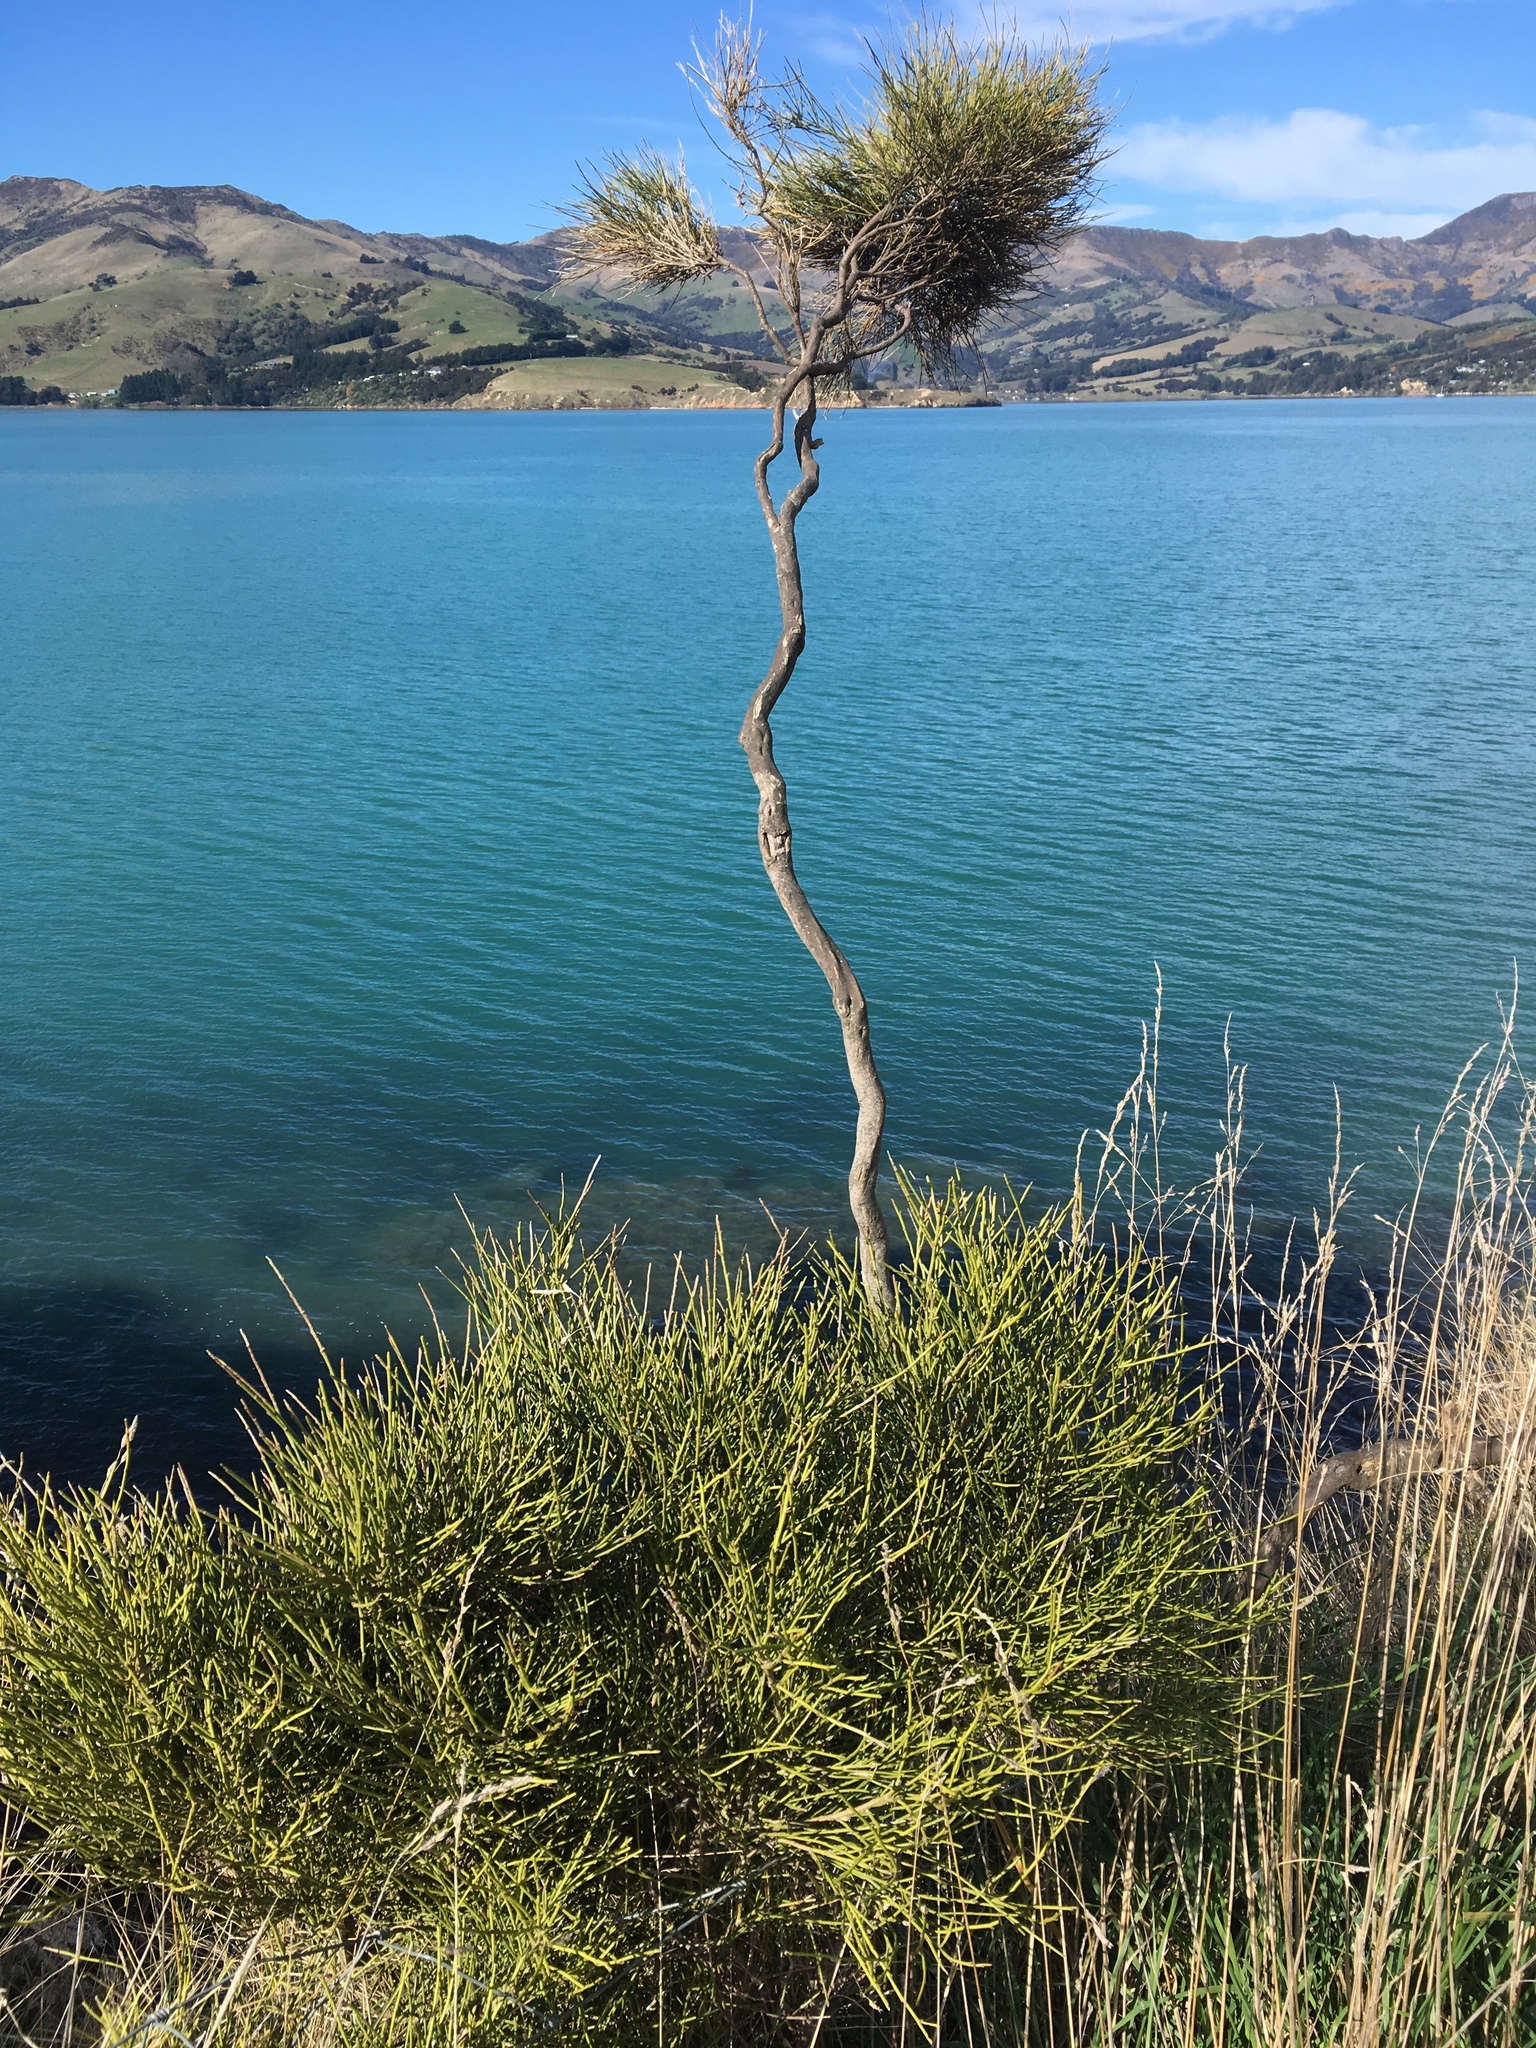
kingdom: Plantae
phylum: Tracheophyta
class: Magnoliopsida
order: Fabales
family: Fabaceae
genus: Carmichaelia
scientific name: Carmichaelia australis
